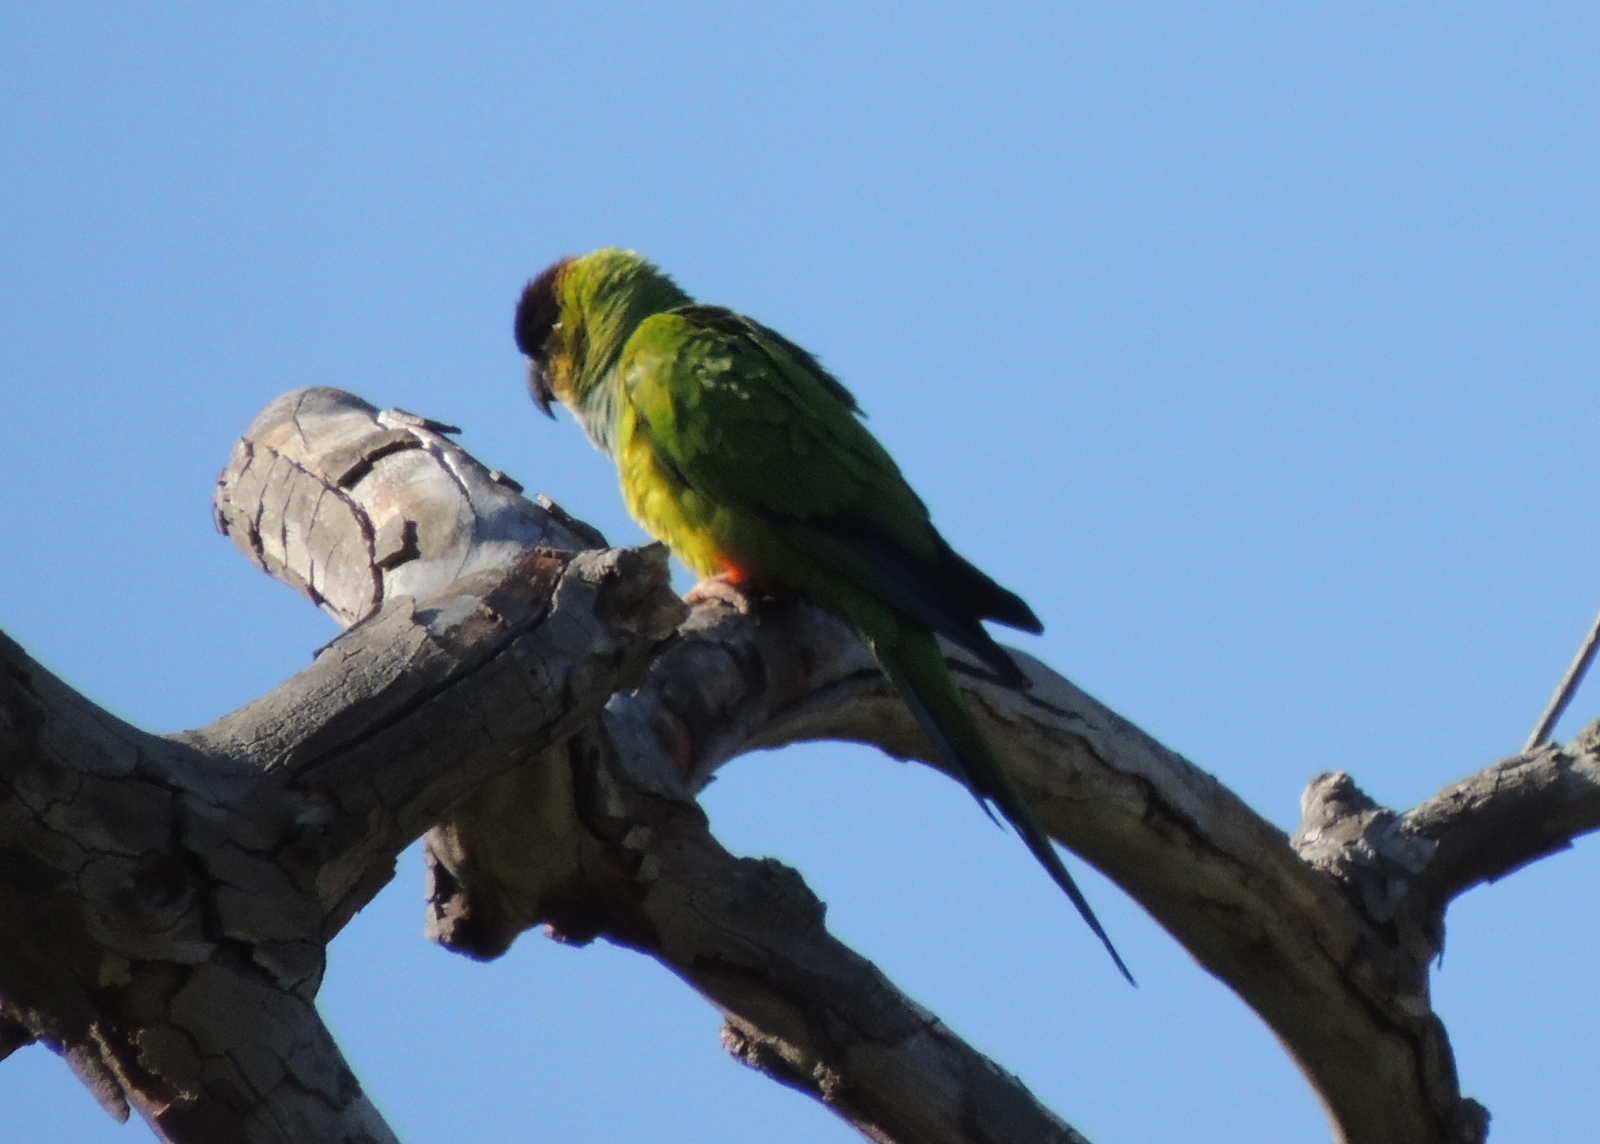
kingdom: Animalia
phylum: Chordata
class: Aves
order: Psittaciformes
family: Psittacidae
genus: Nandayus
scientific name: Nandayus nenday
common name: Nanday parakeet
